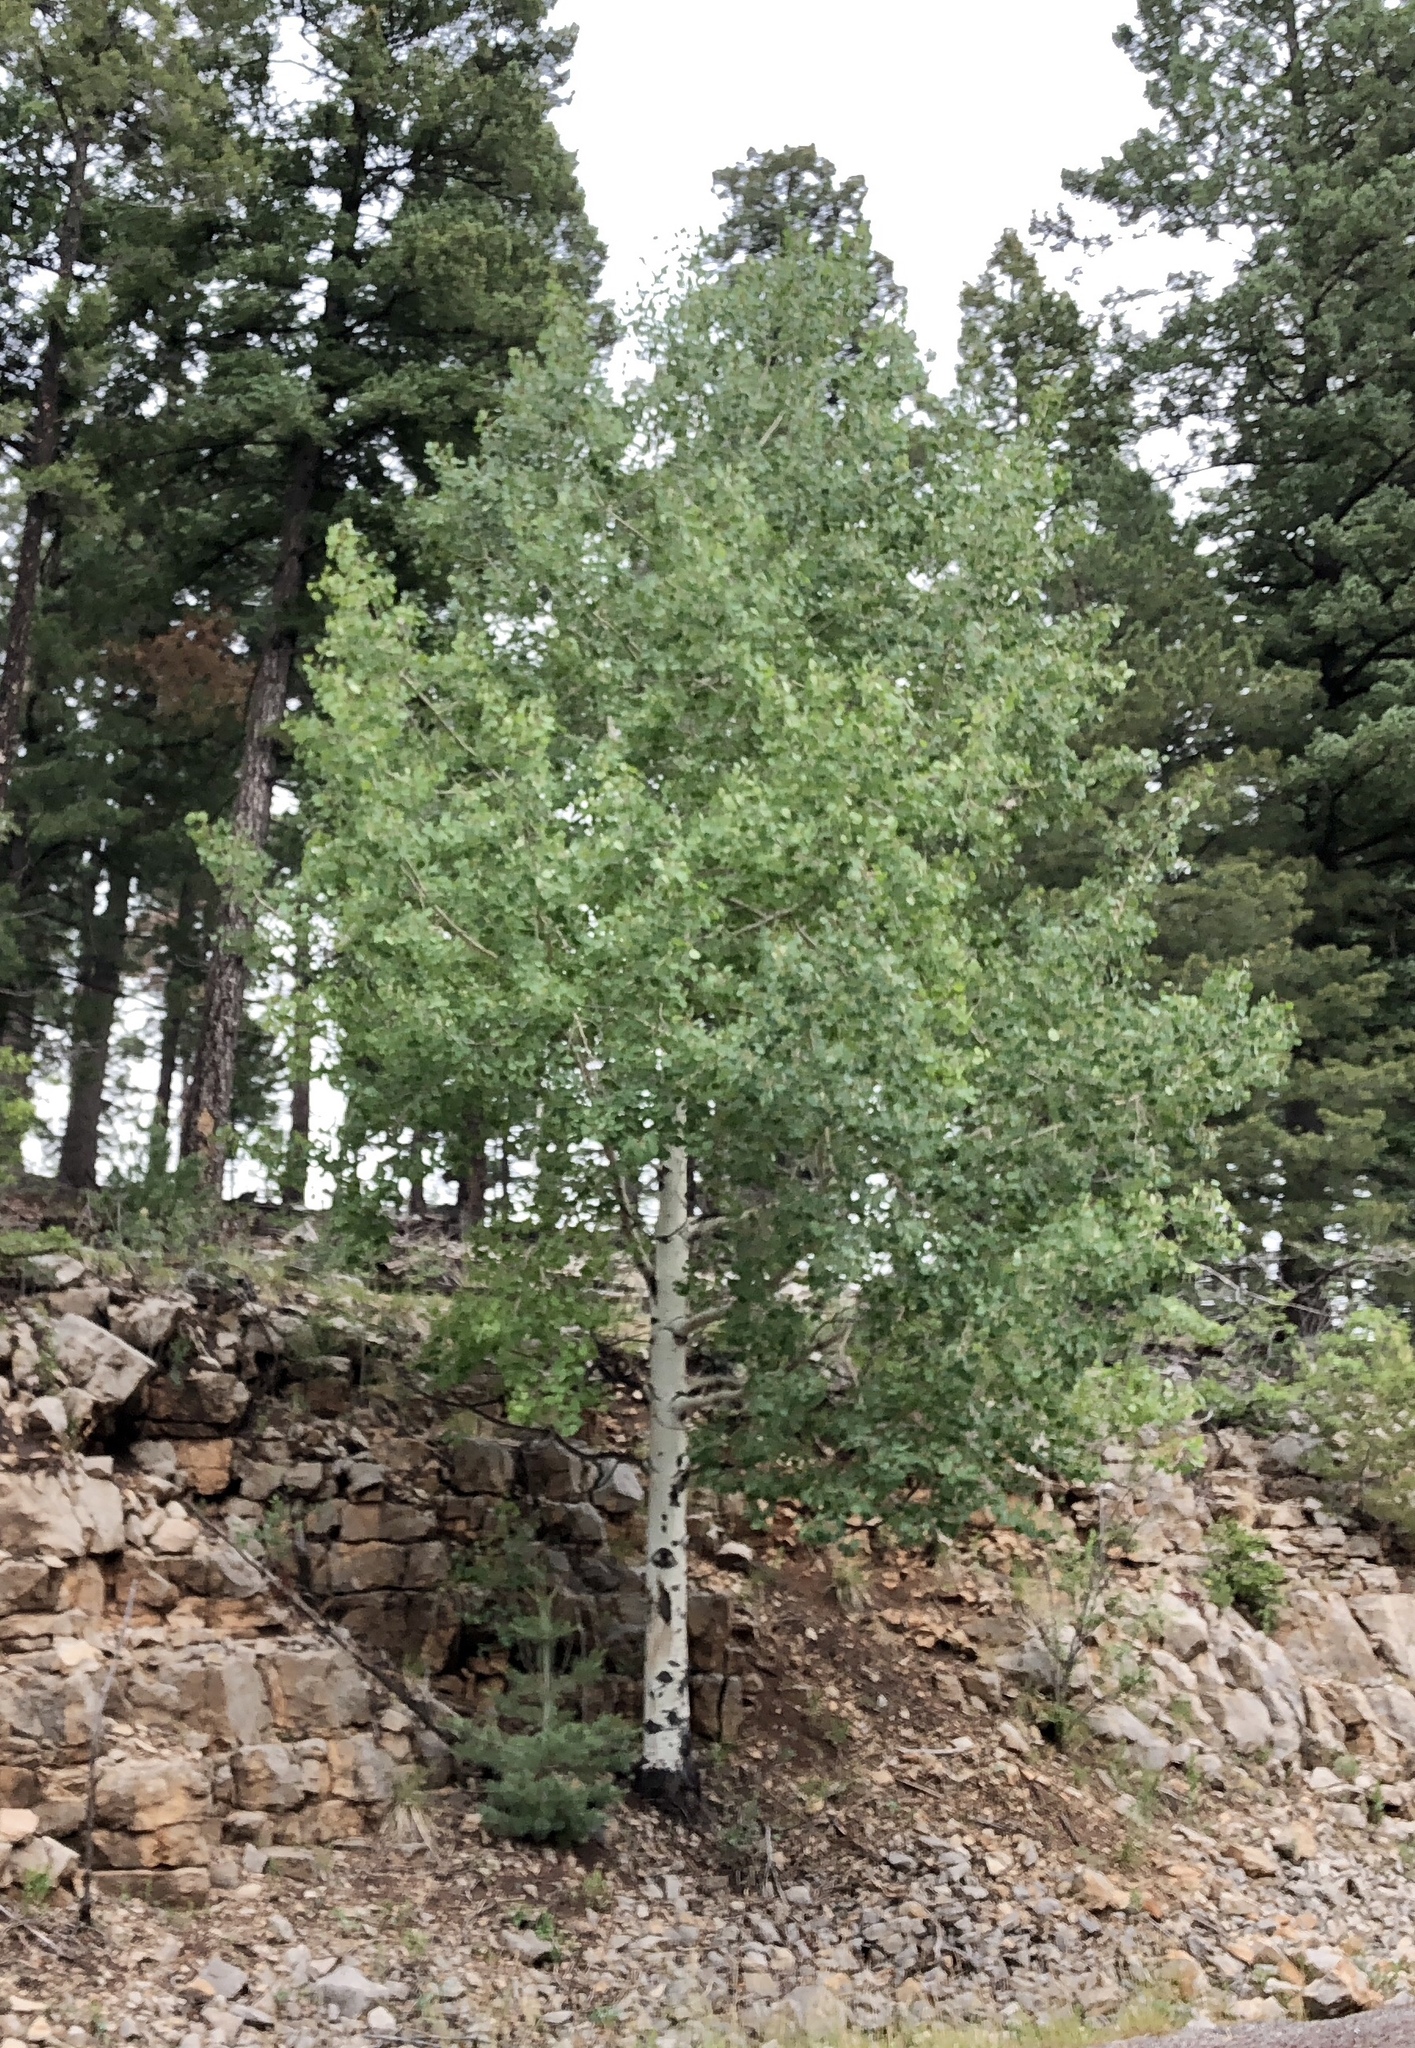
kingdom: Plantae
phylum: Tracheophyta
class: Magnoliopsida
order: Malpighiales
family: Salicaceae
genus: Populus
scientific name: Populus tremuloides
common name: Quaking aspen
